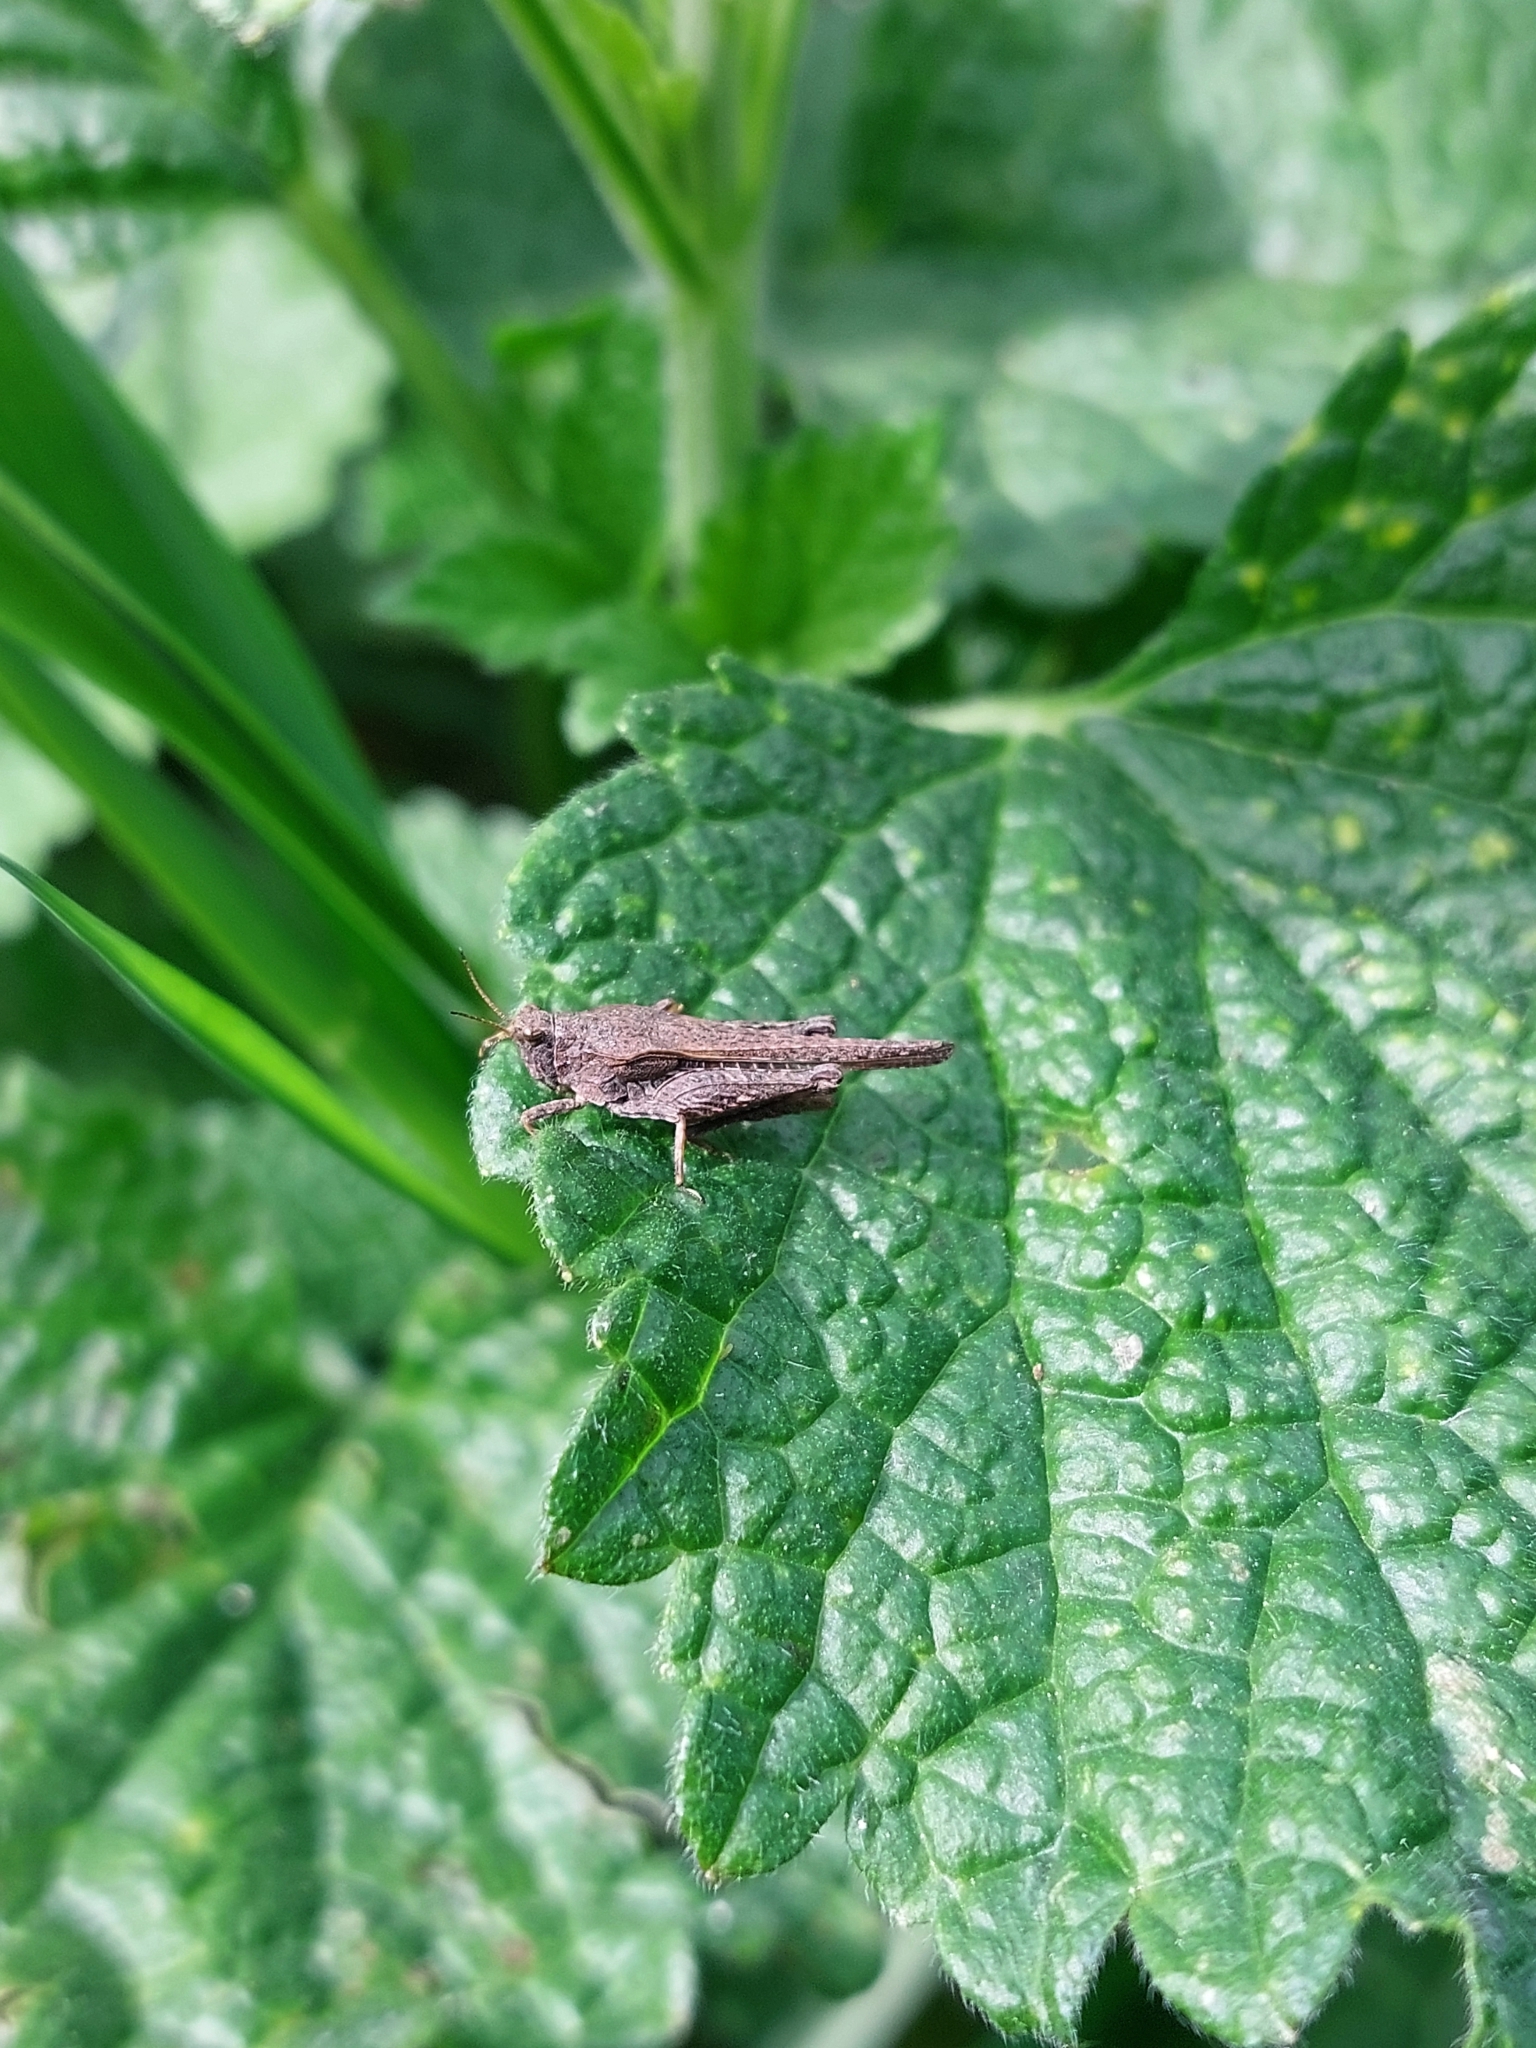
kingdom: Animalia
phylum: Arthropoda
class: Insecta
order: Orthoptera
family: Tetrigidae
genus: Tetrix
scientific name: Tetrix subulata
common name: Slender ground-hopper
